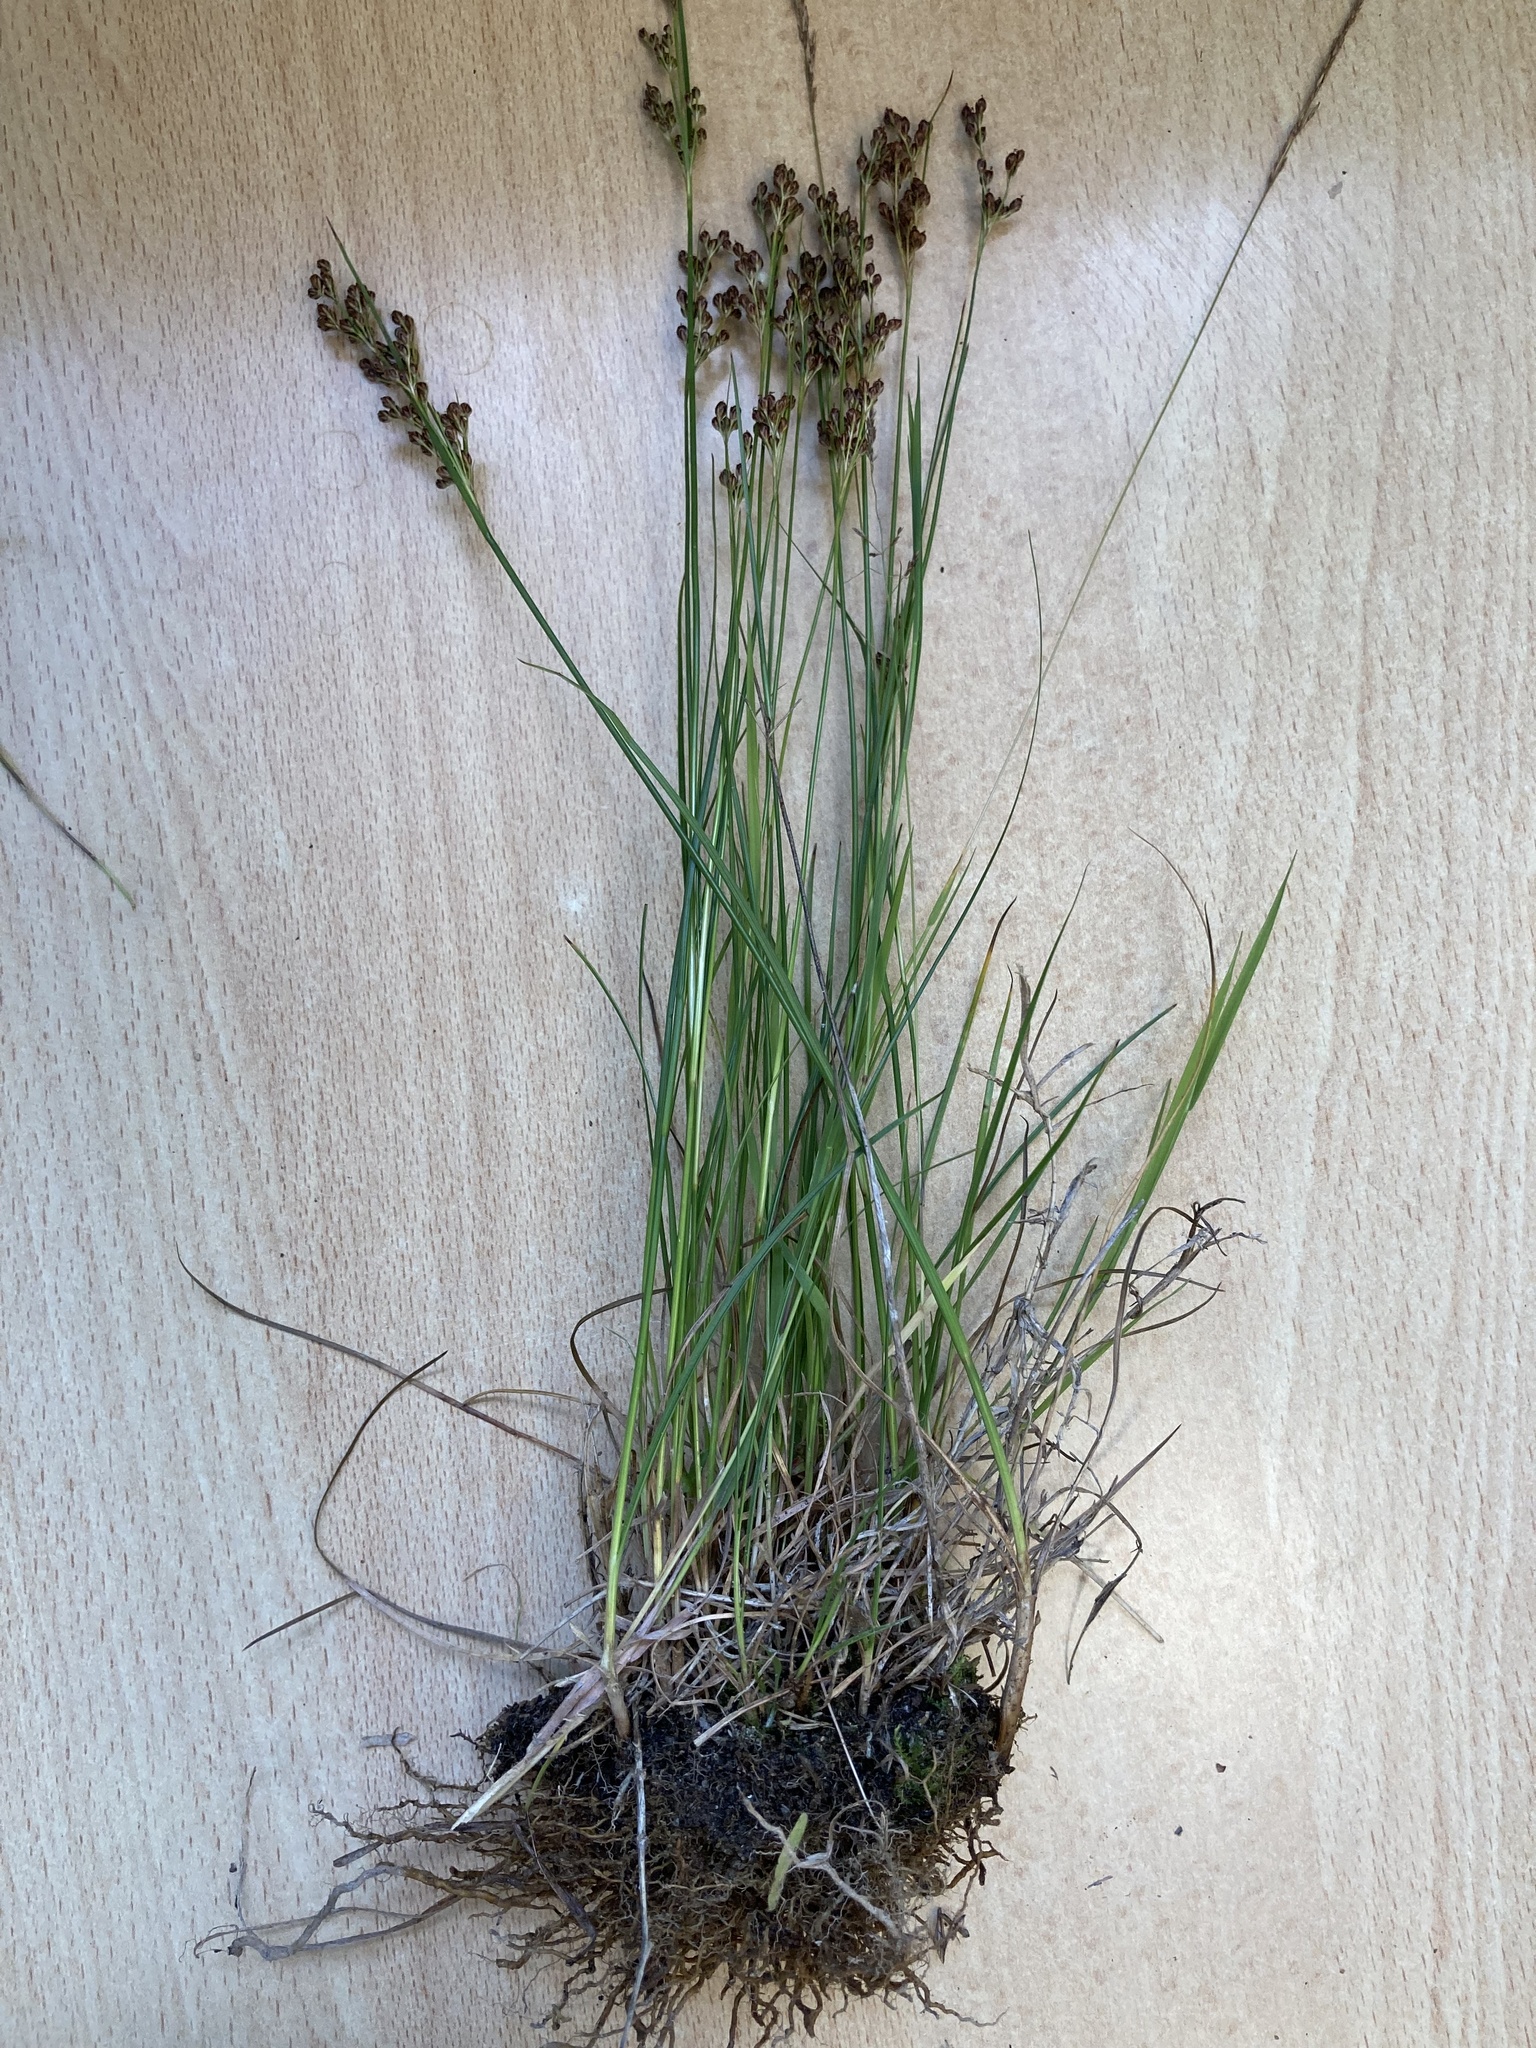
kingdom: Plantae
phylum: Tracheophyta
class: Liliopsida
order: Poales
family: Juncaceae
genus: Juncus
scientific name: Juncus compressus
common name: Round-fruited rush
